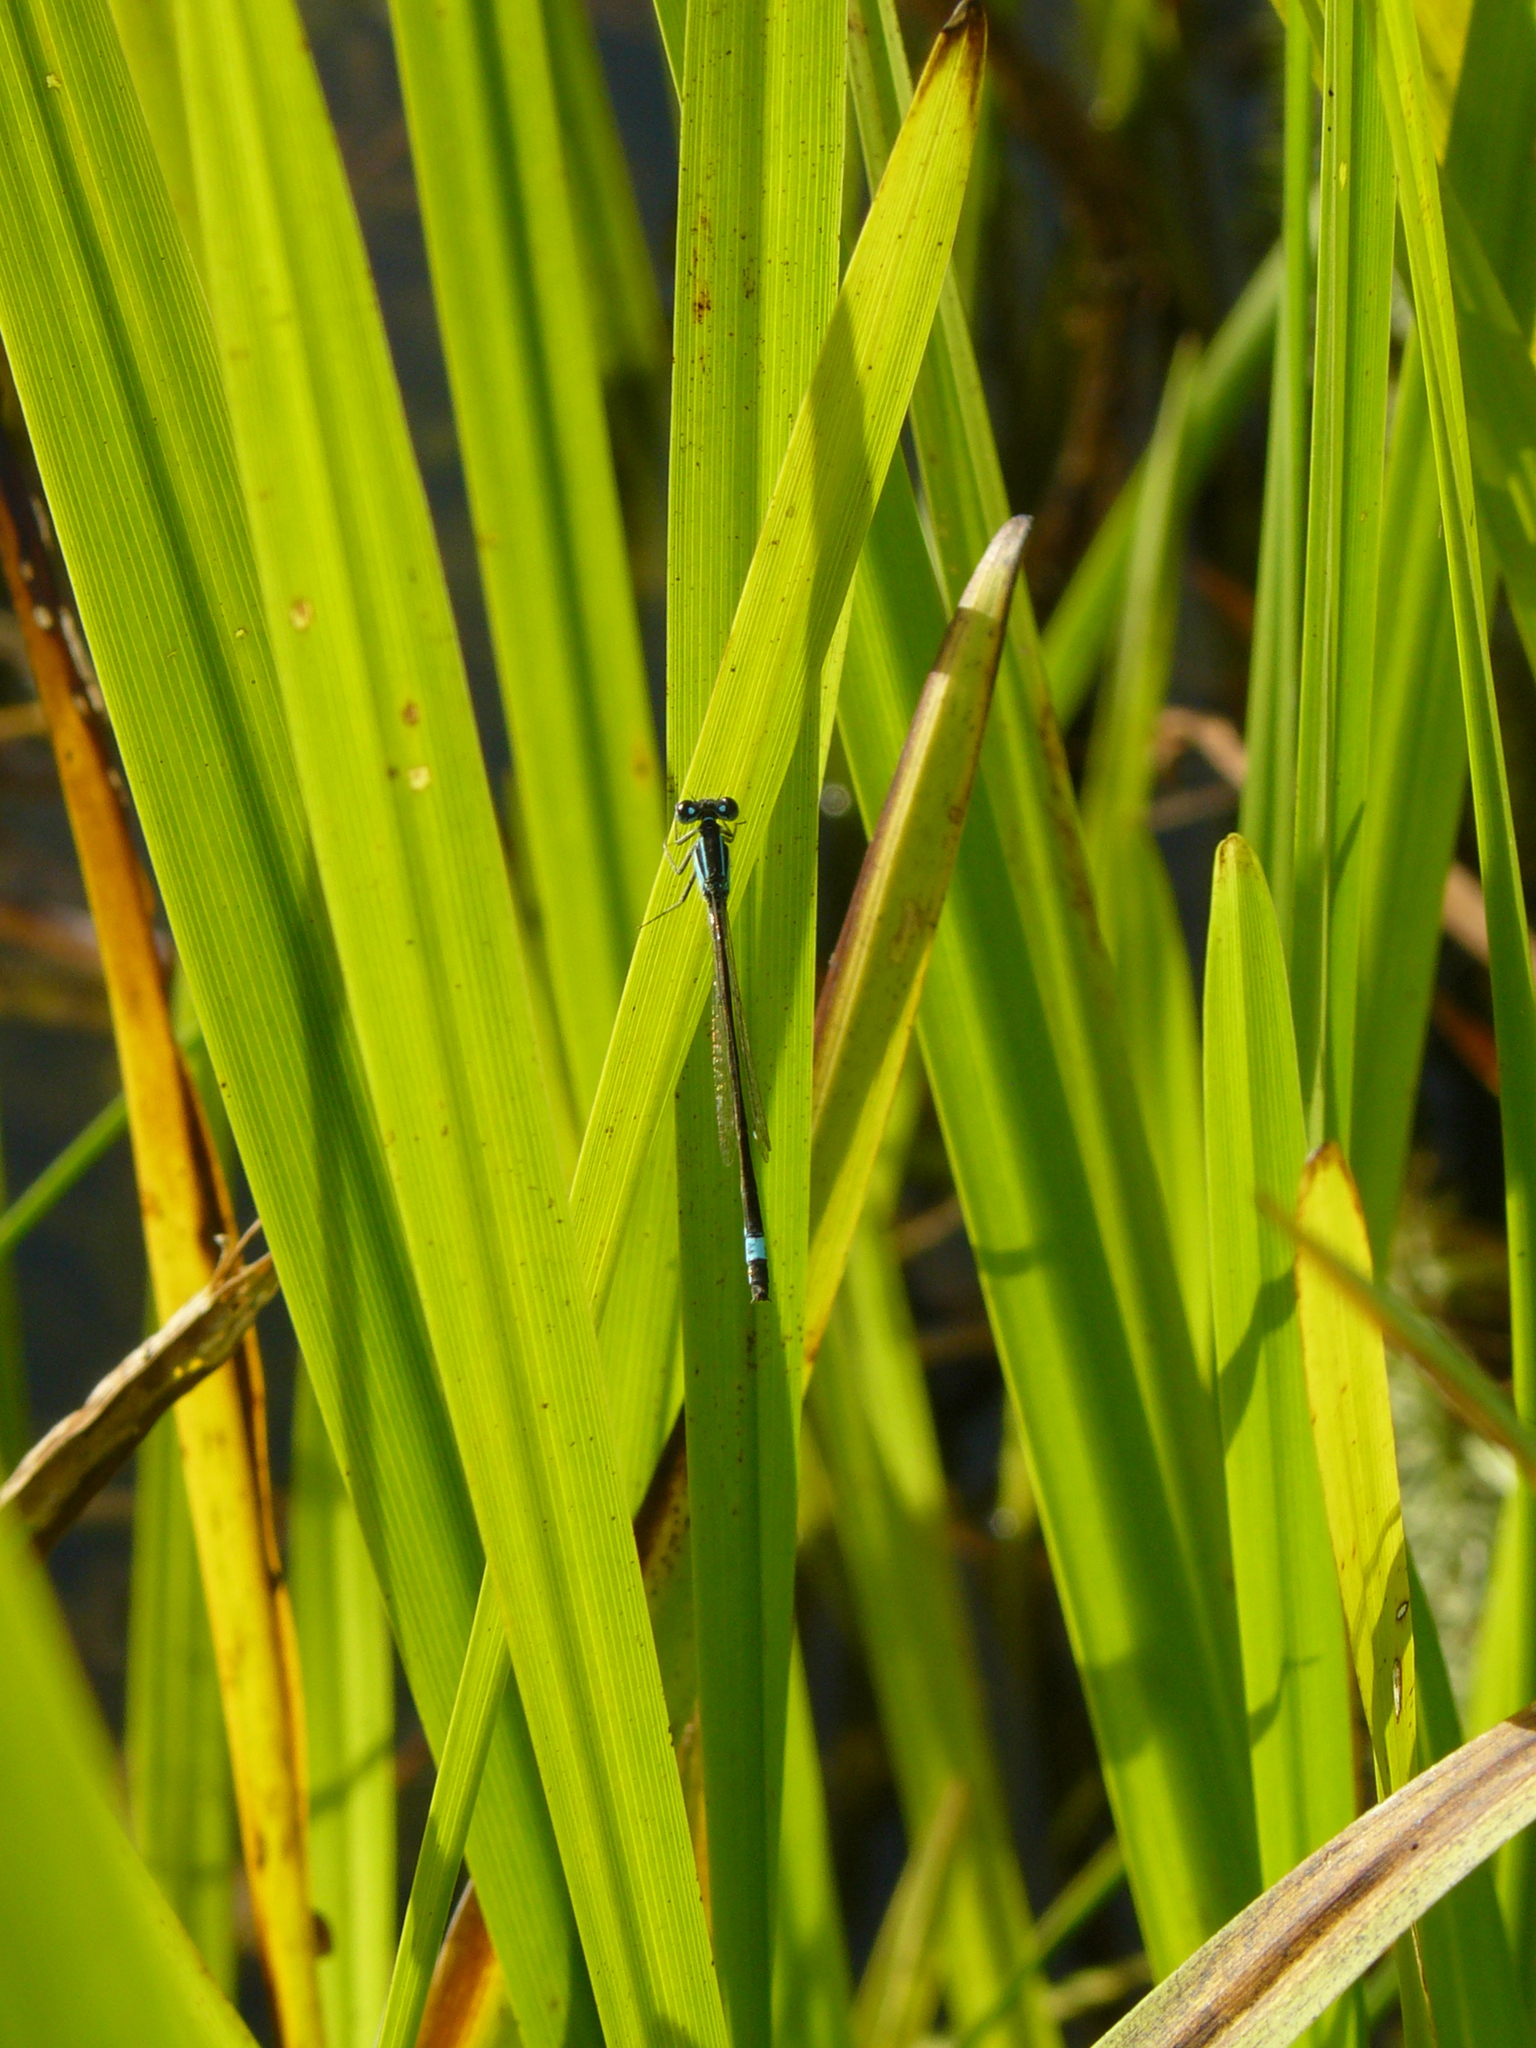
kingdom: Animalia
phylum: Arthropoda
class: Insecta
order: Odonata
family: Coenagrionidae
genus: Ischnura
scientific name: Ischnura elegans
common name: Blue-tailed damselfly
